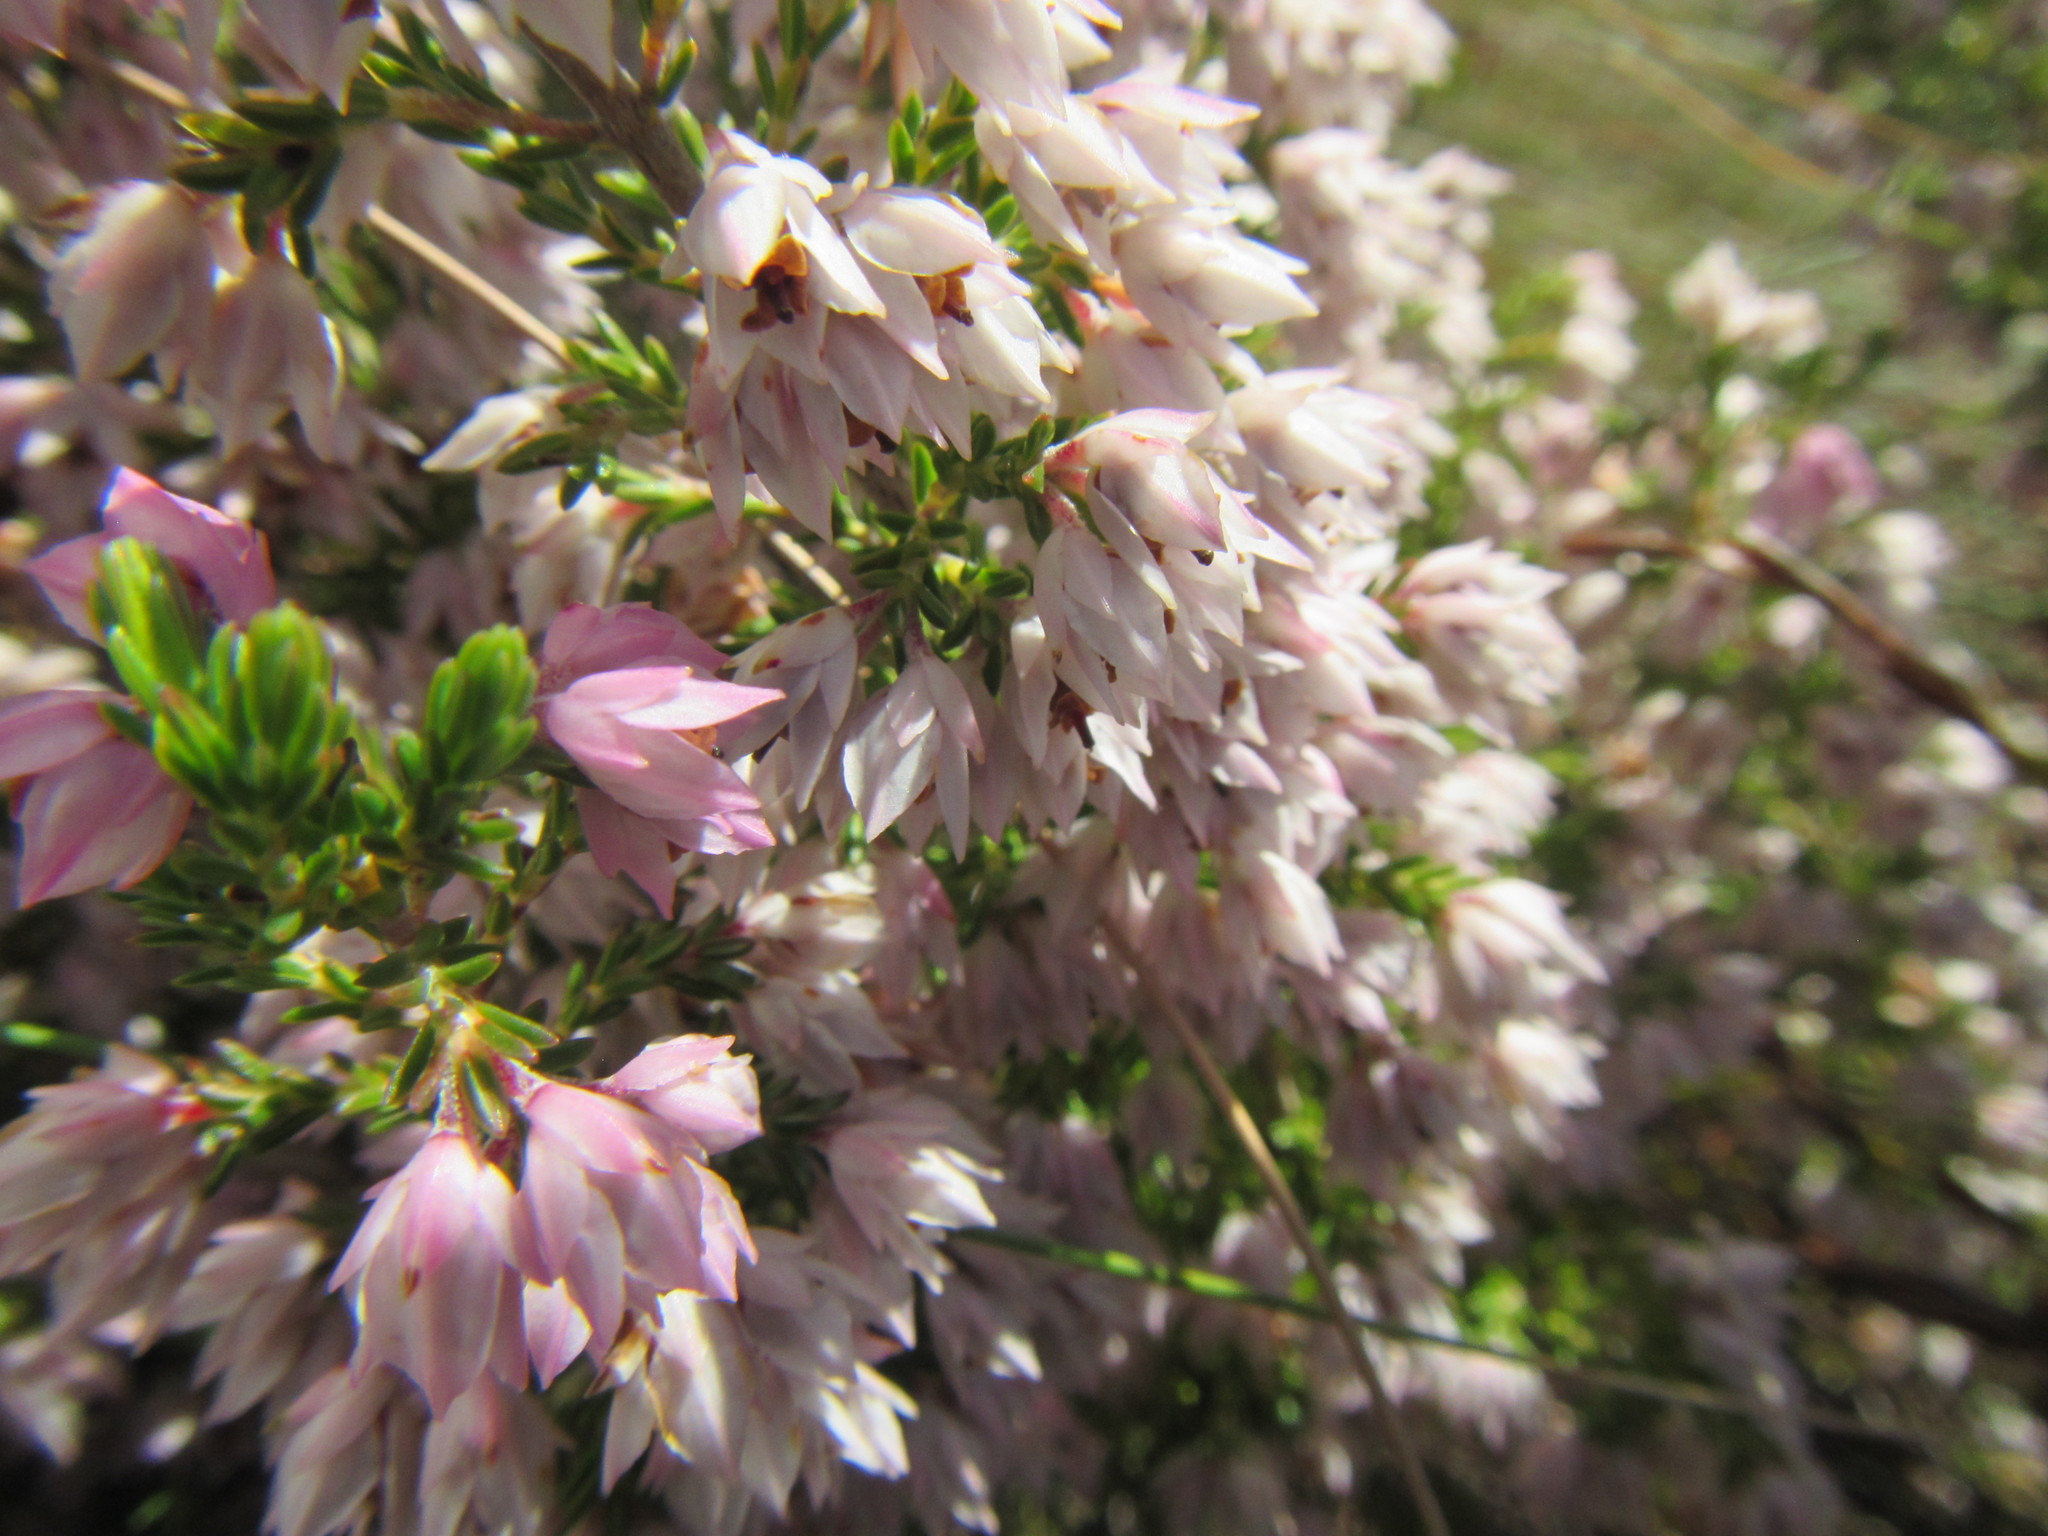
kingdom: Plantae
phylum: Tracheophyta
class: Magnoliopsida
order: Ericales
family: Ericaceae
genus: Erica
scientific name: Erica plumigera
